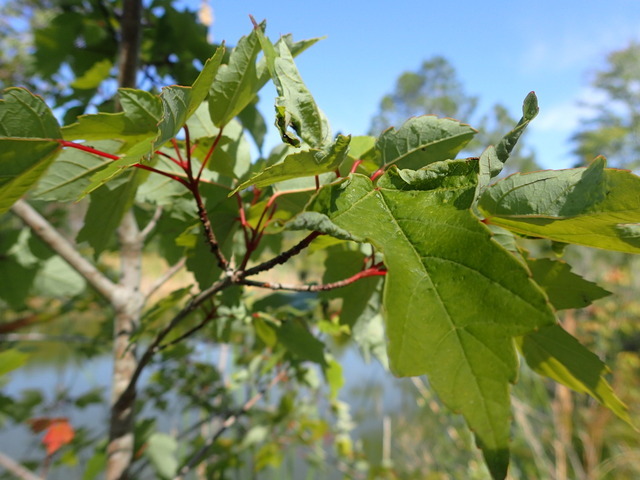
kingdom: Plantae
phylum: Tracheophyta
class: Magnoliopsida
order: Sapindales
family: Sapindaceae
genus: Acer
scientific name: Acer rubrum
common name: Red maple
